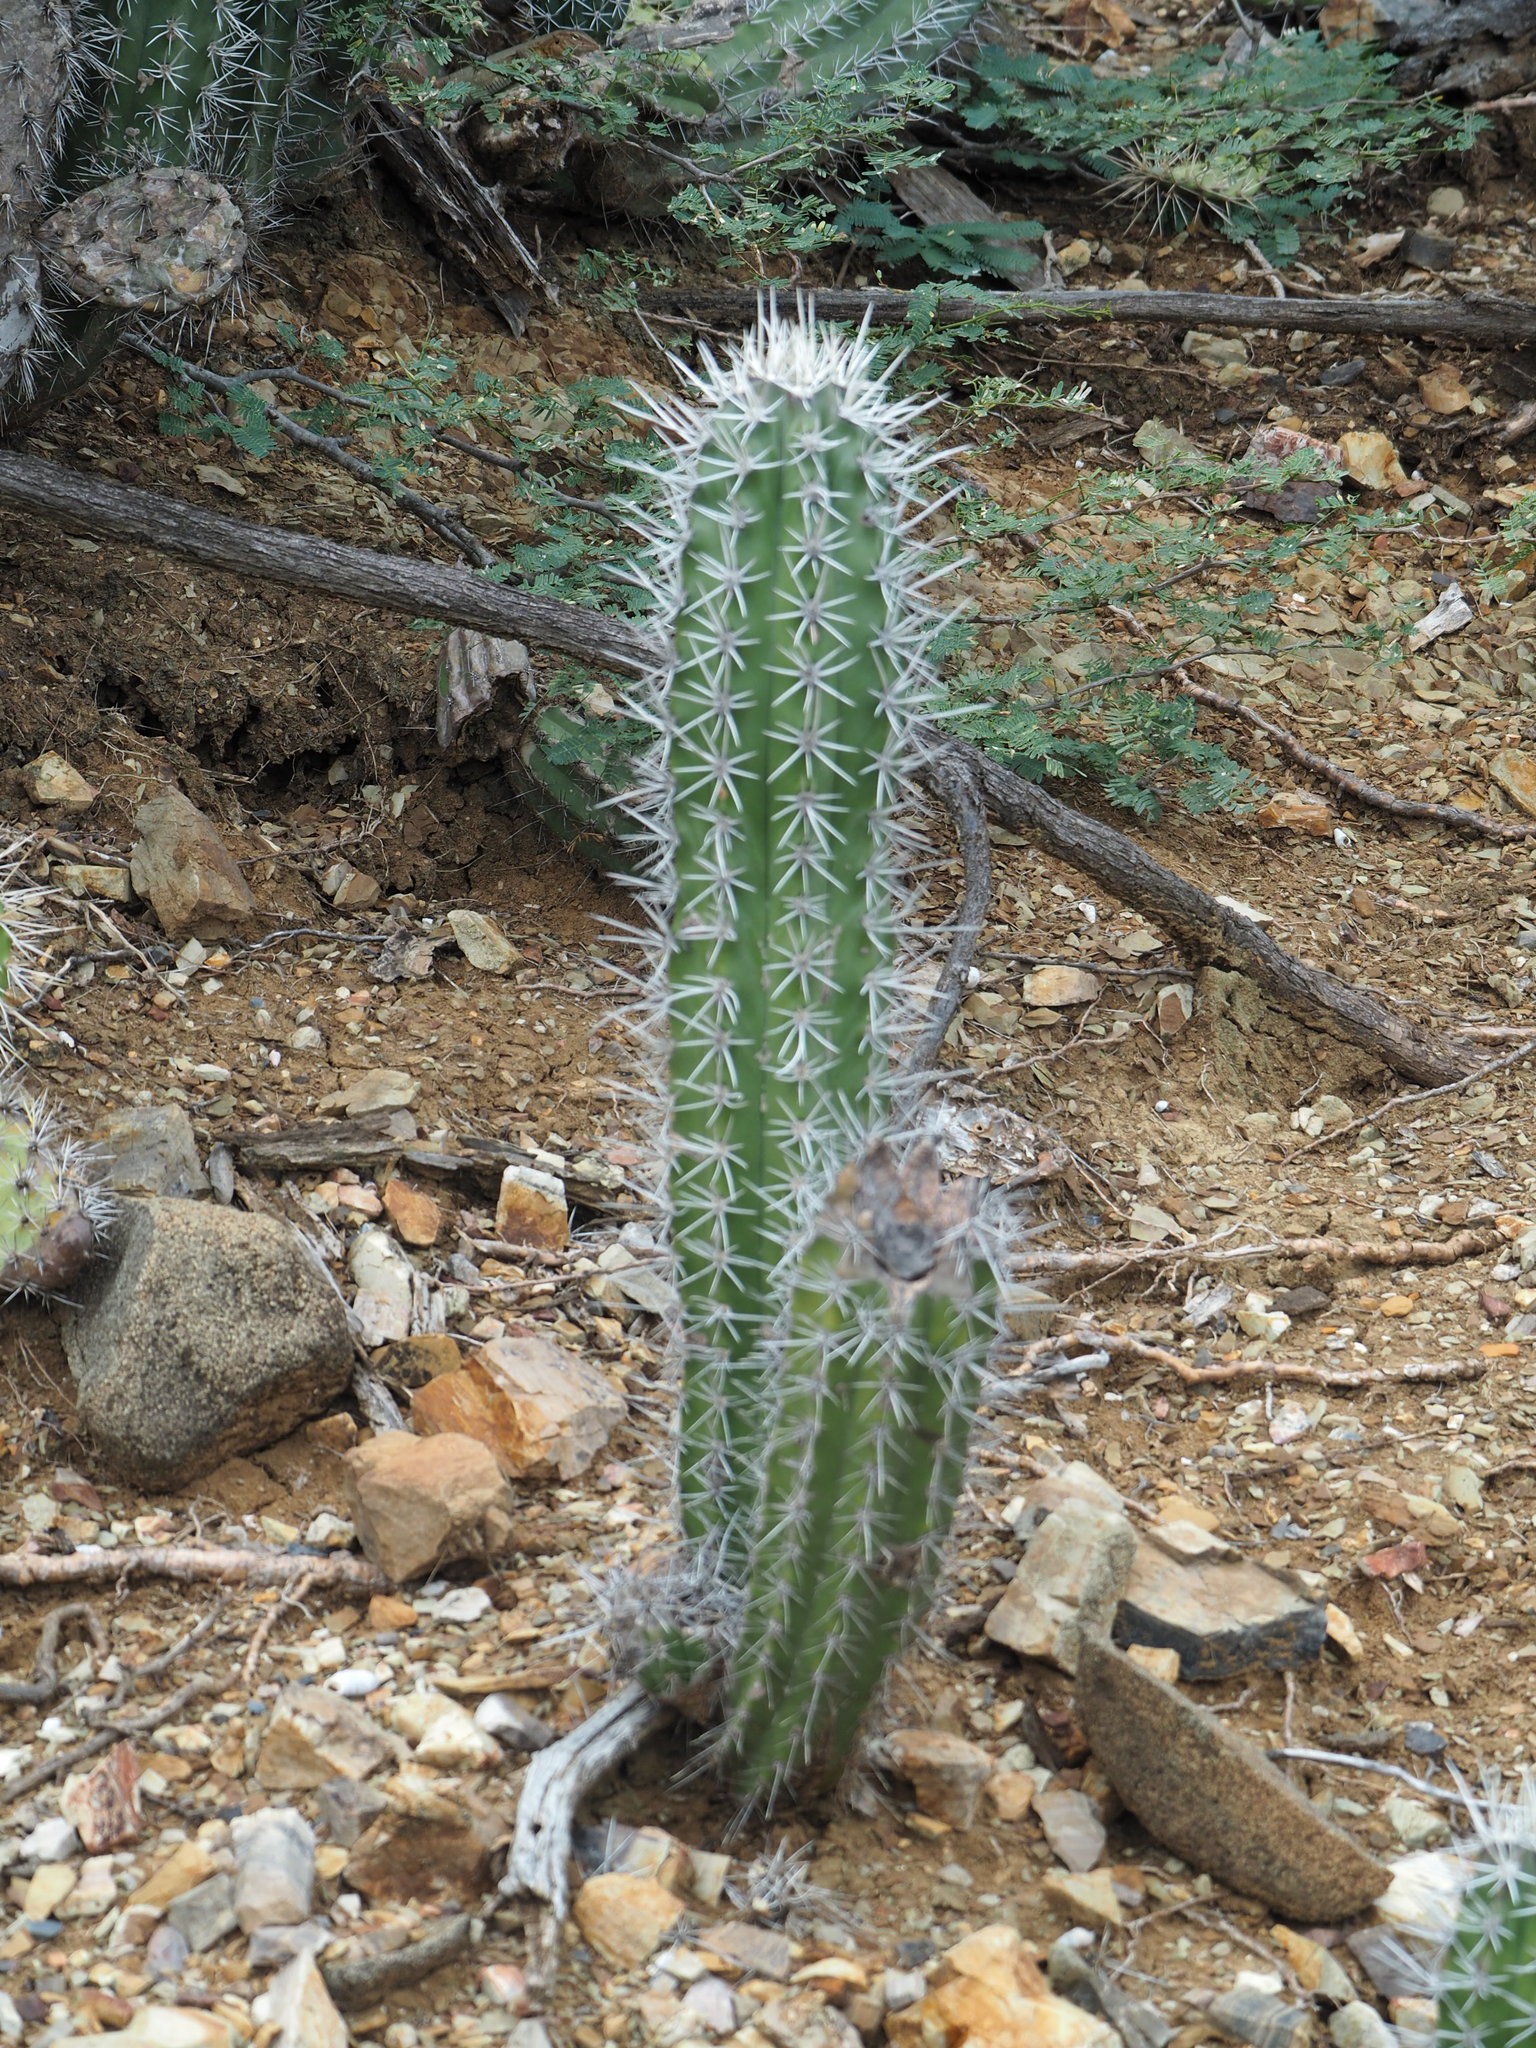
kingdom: Plantae
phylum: Tracheophyta
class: Magnoliopsida
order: Caryophyllales
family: Cactaceae
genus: Stenocereus
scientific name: Stenocereus griseus
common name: Tall candelabra cactus
